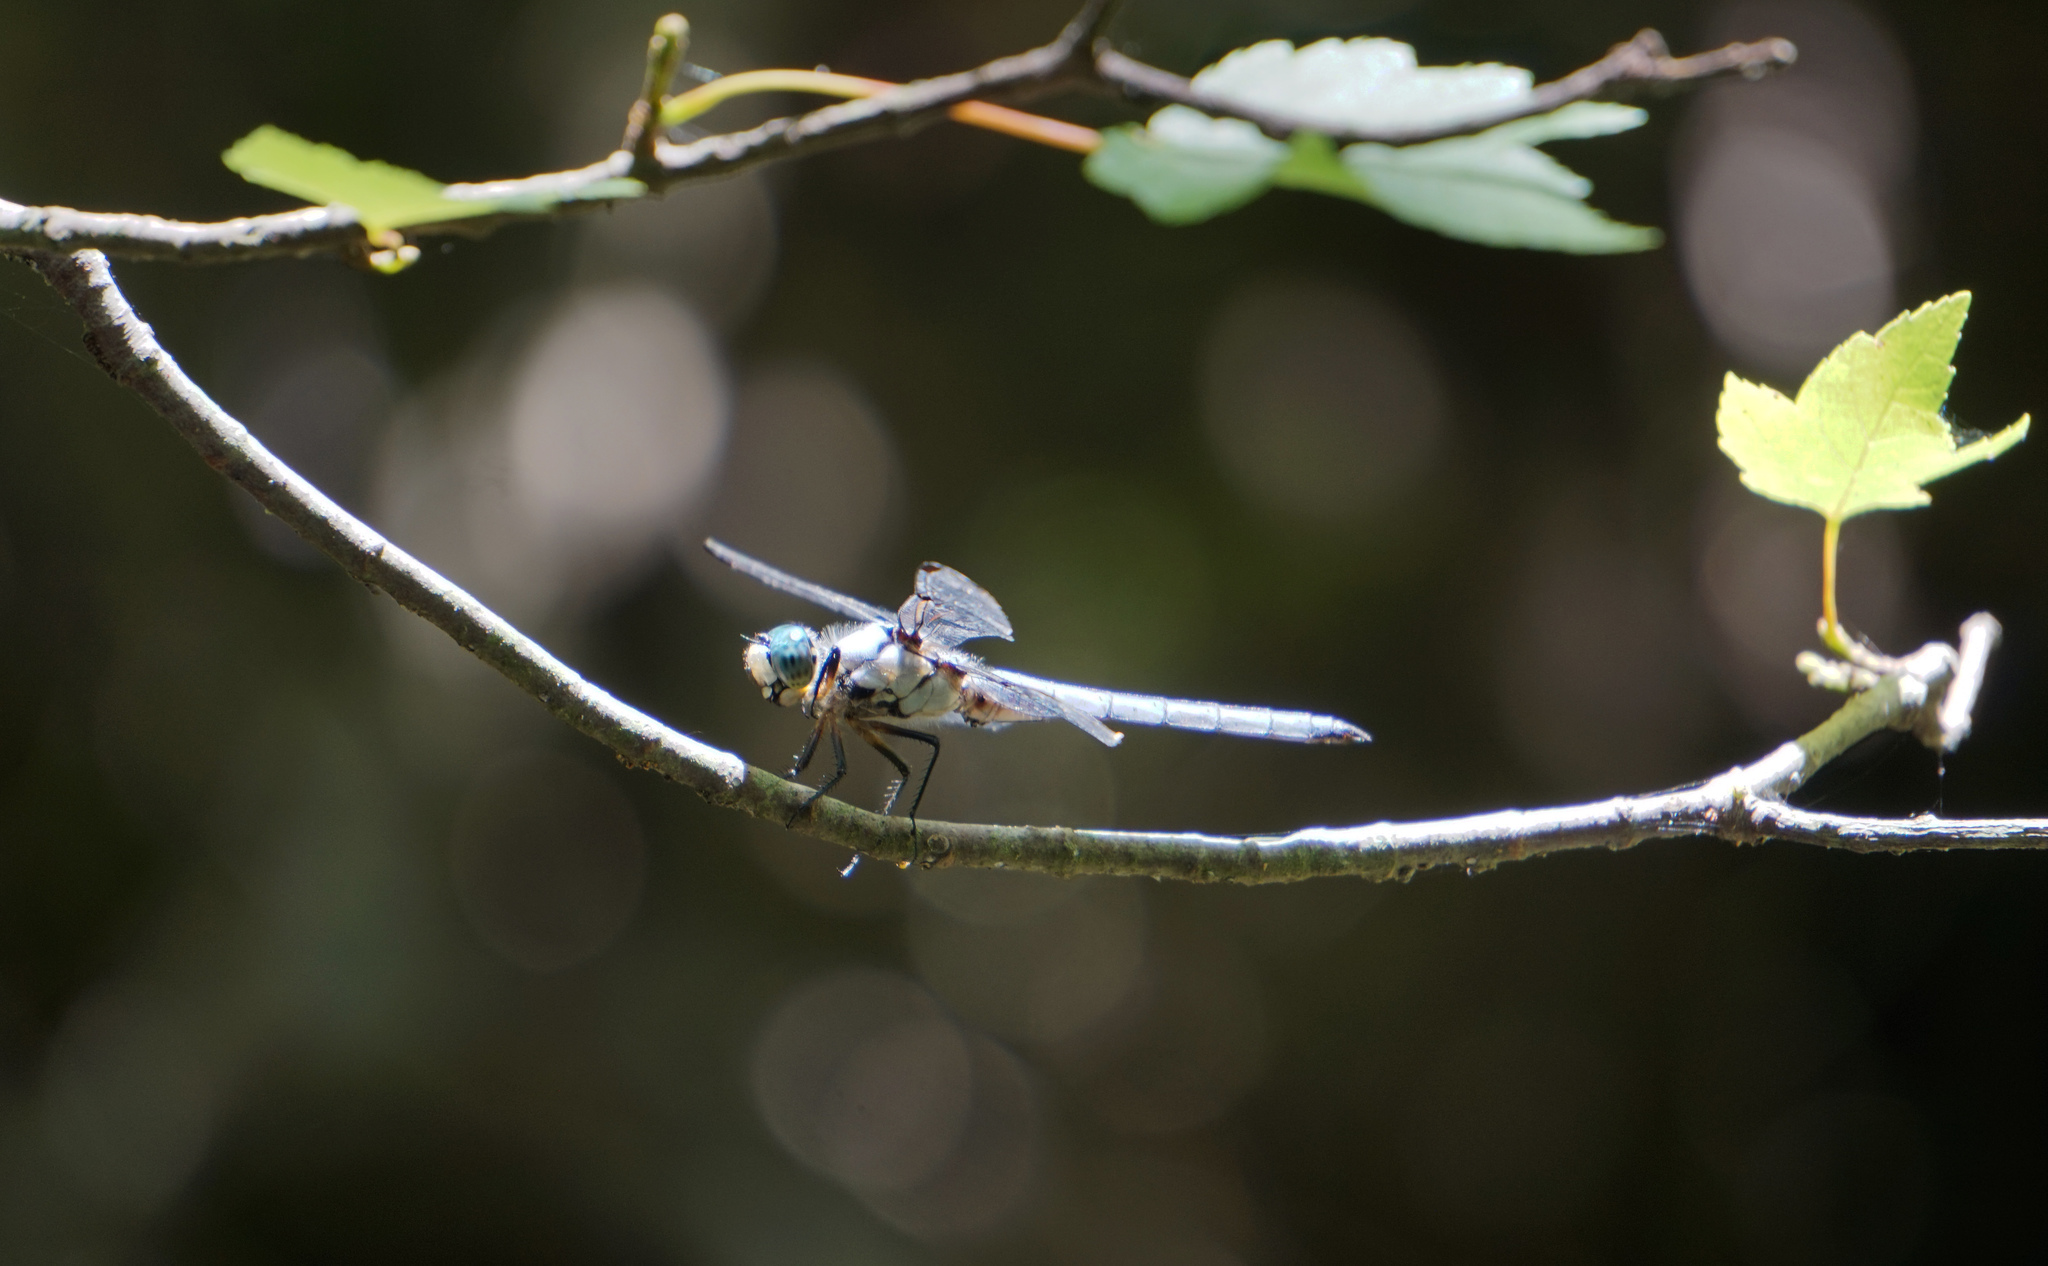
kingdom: Animalia
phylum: Arthropoda
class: Insecta
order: Odonata
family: Libellulidae
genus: Libellula
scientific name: Libellula vibrans
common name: Great blue skimmer
